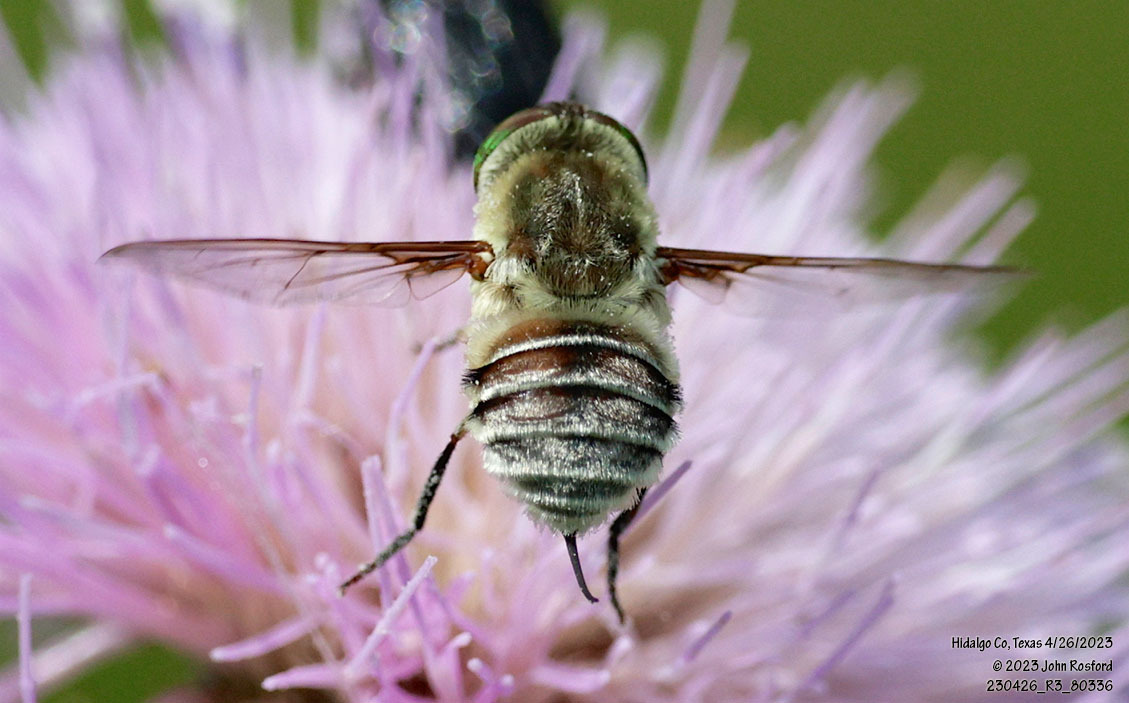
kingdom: Animalia
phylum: Arthropoda
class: Insecta
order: Diptera
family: Nemestrinidae
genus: Neorhynchocephalus
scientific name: Neorhynchocephalus volaticus
